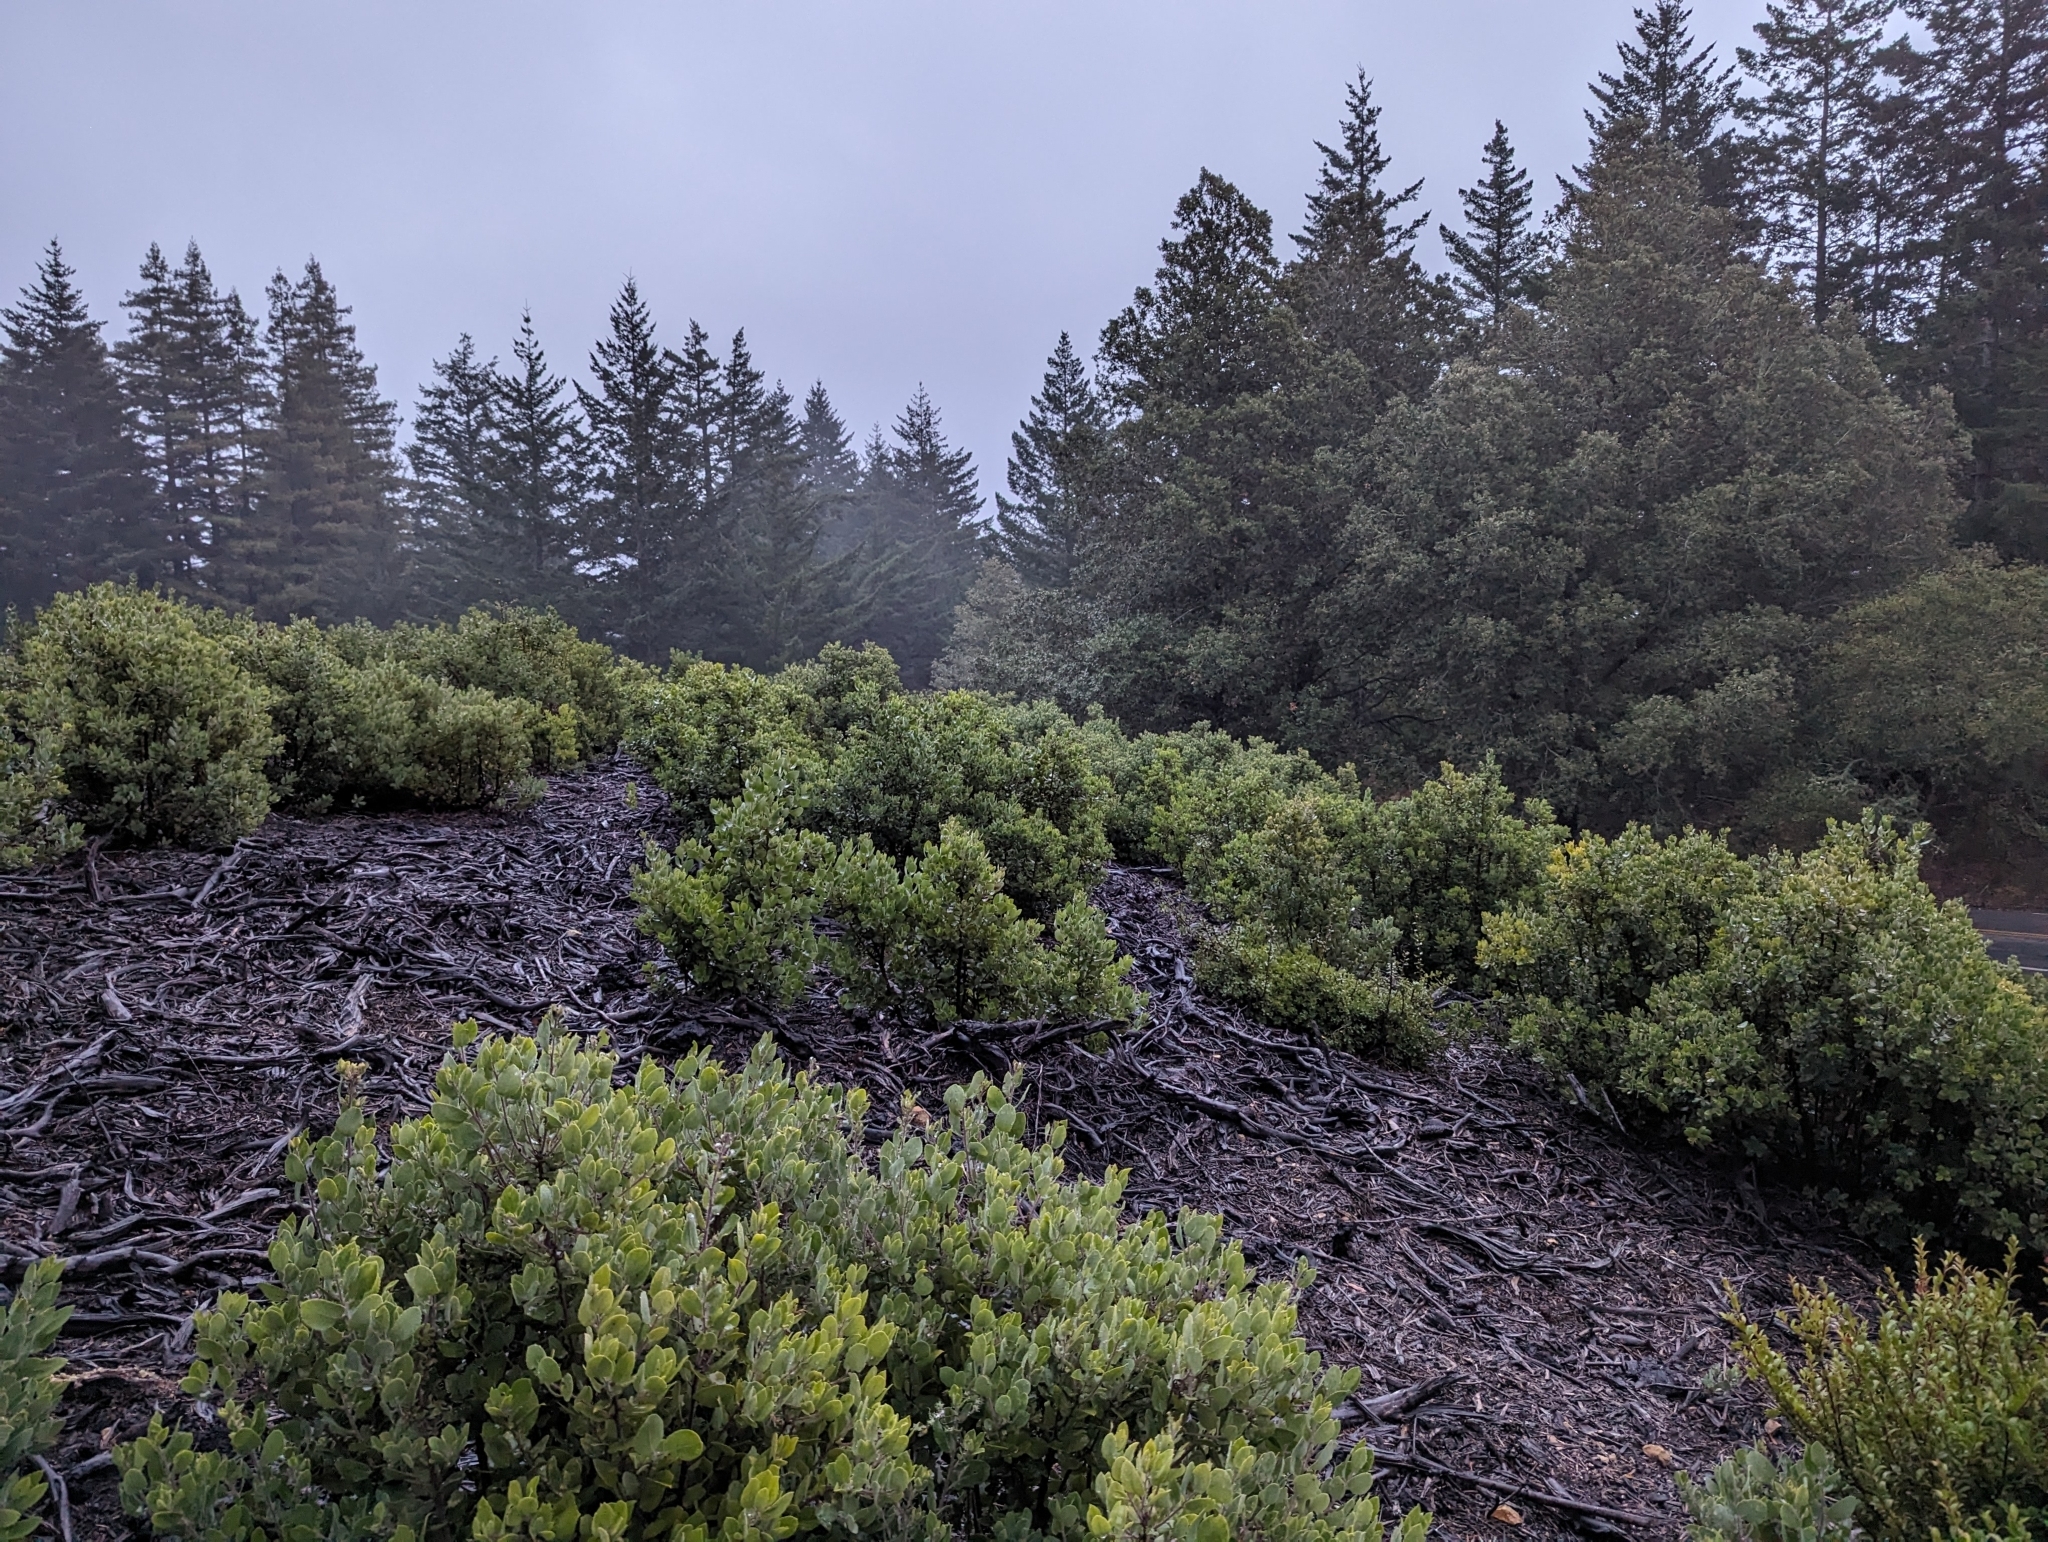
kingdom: Plantae
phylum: Tracheophyta
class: Magnoliopsida
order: Ericales
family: Ericaceae
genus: Arctostaphylos
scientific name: Arctostaphylos crustacea
